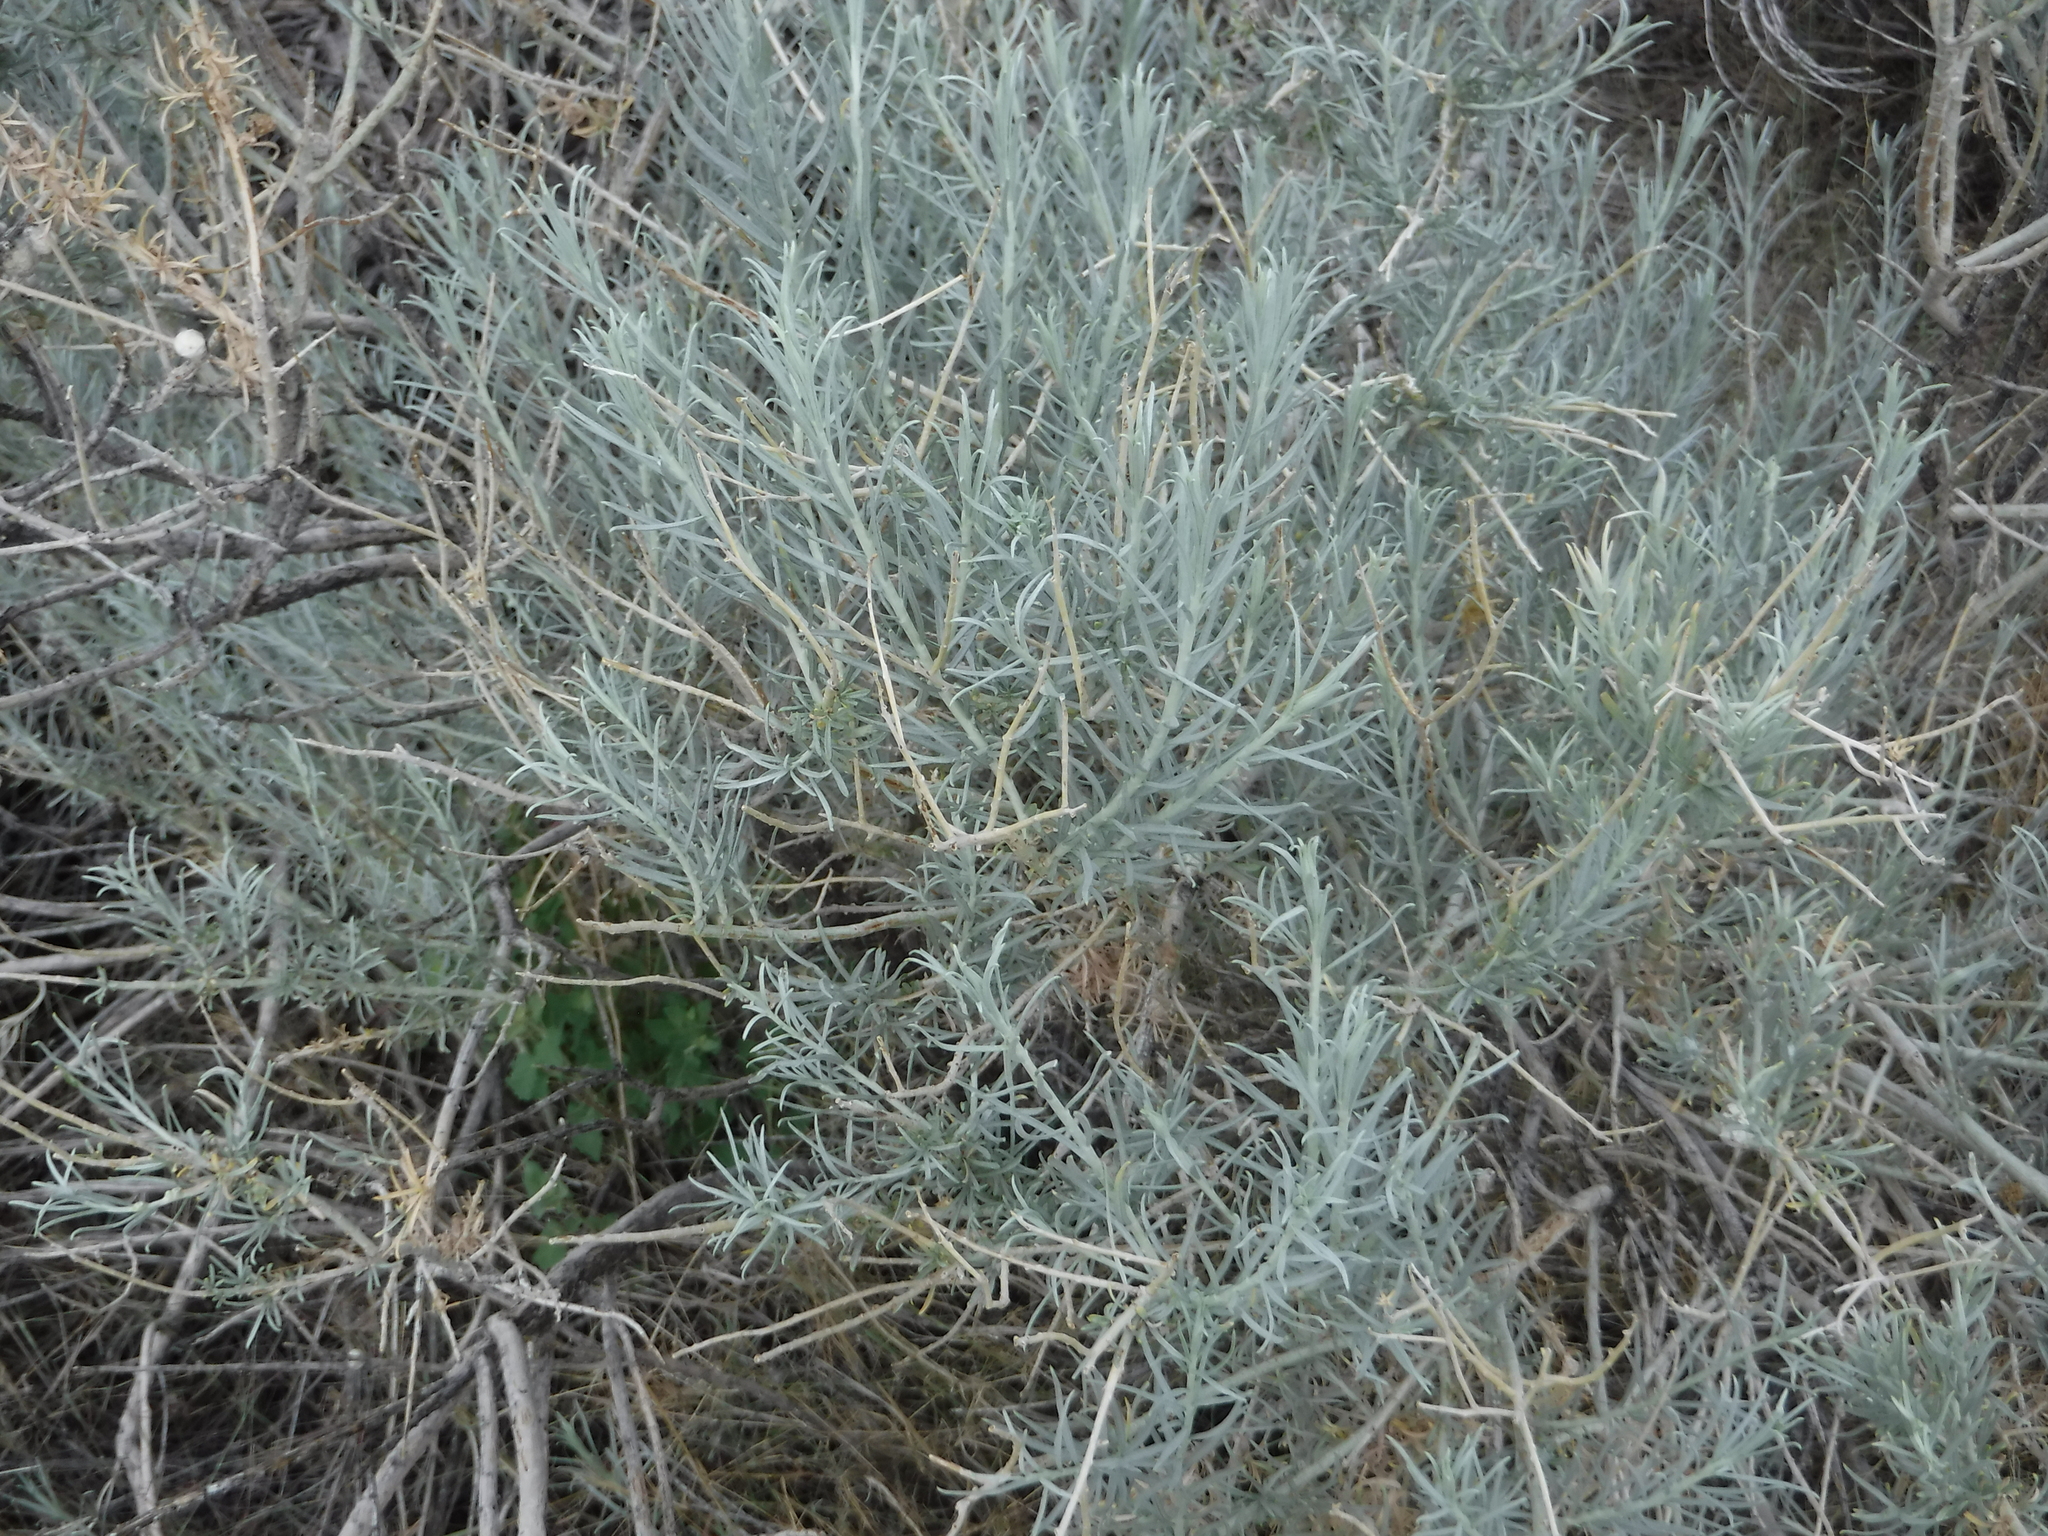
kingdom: Plantae
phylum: Tracheophyta
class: Magnoliopsida
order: Asterales
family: Asteraceae
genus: Ericameria
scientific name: Ericameria nauseosa
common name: Rubber rabbitbrush
